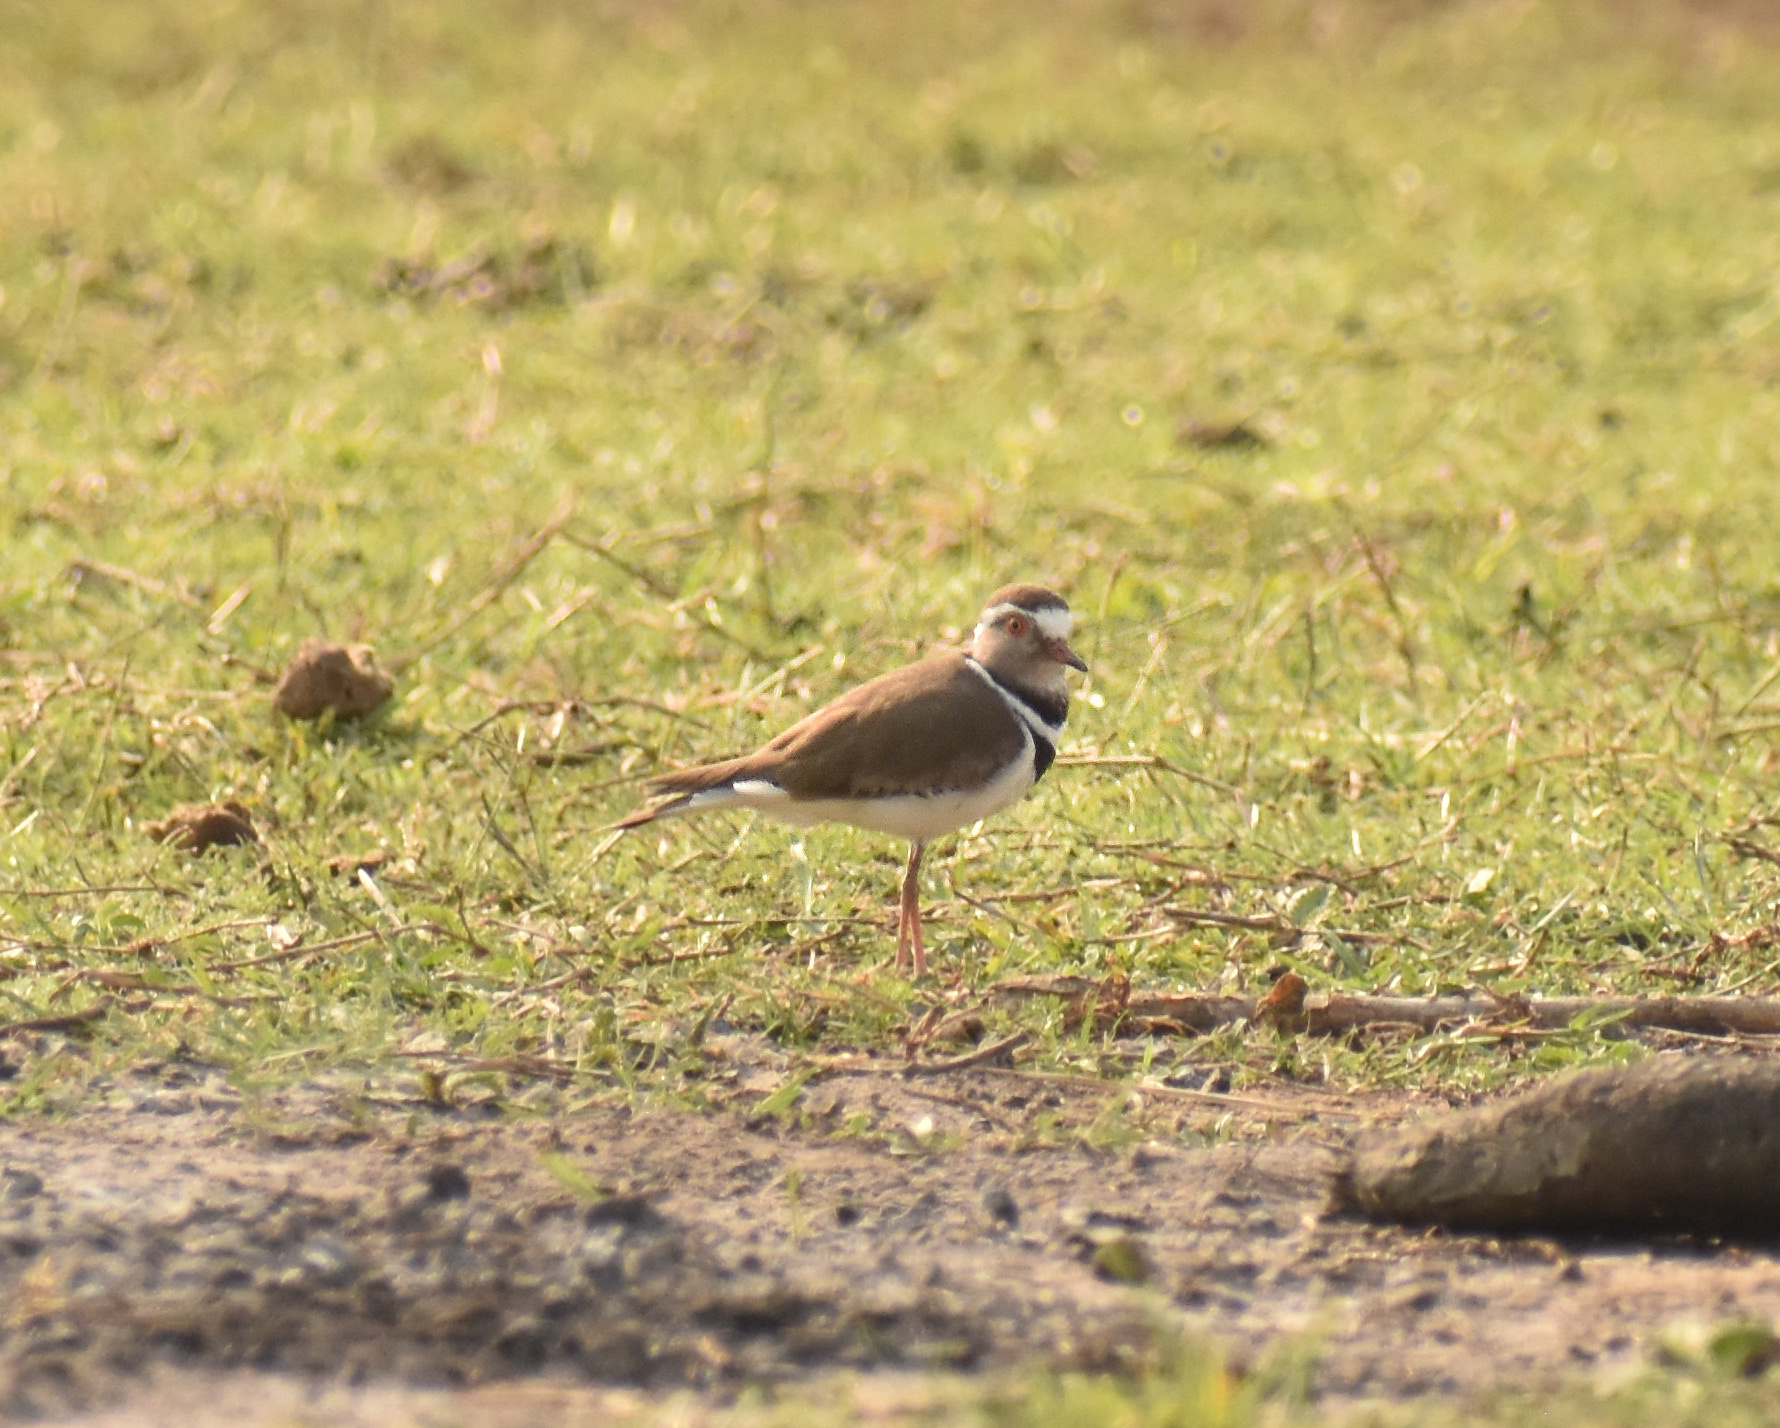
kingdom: Animalia
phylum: Chordata
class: Aves
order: Charadriiformes
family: Charadriidae
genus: Charadrius
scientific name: Charadrius tricollaris
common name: Three-banded plover
